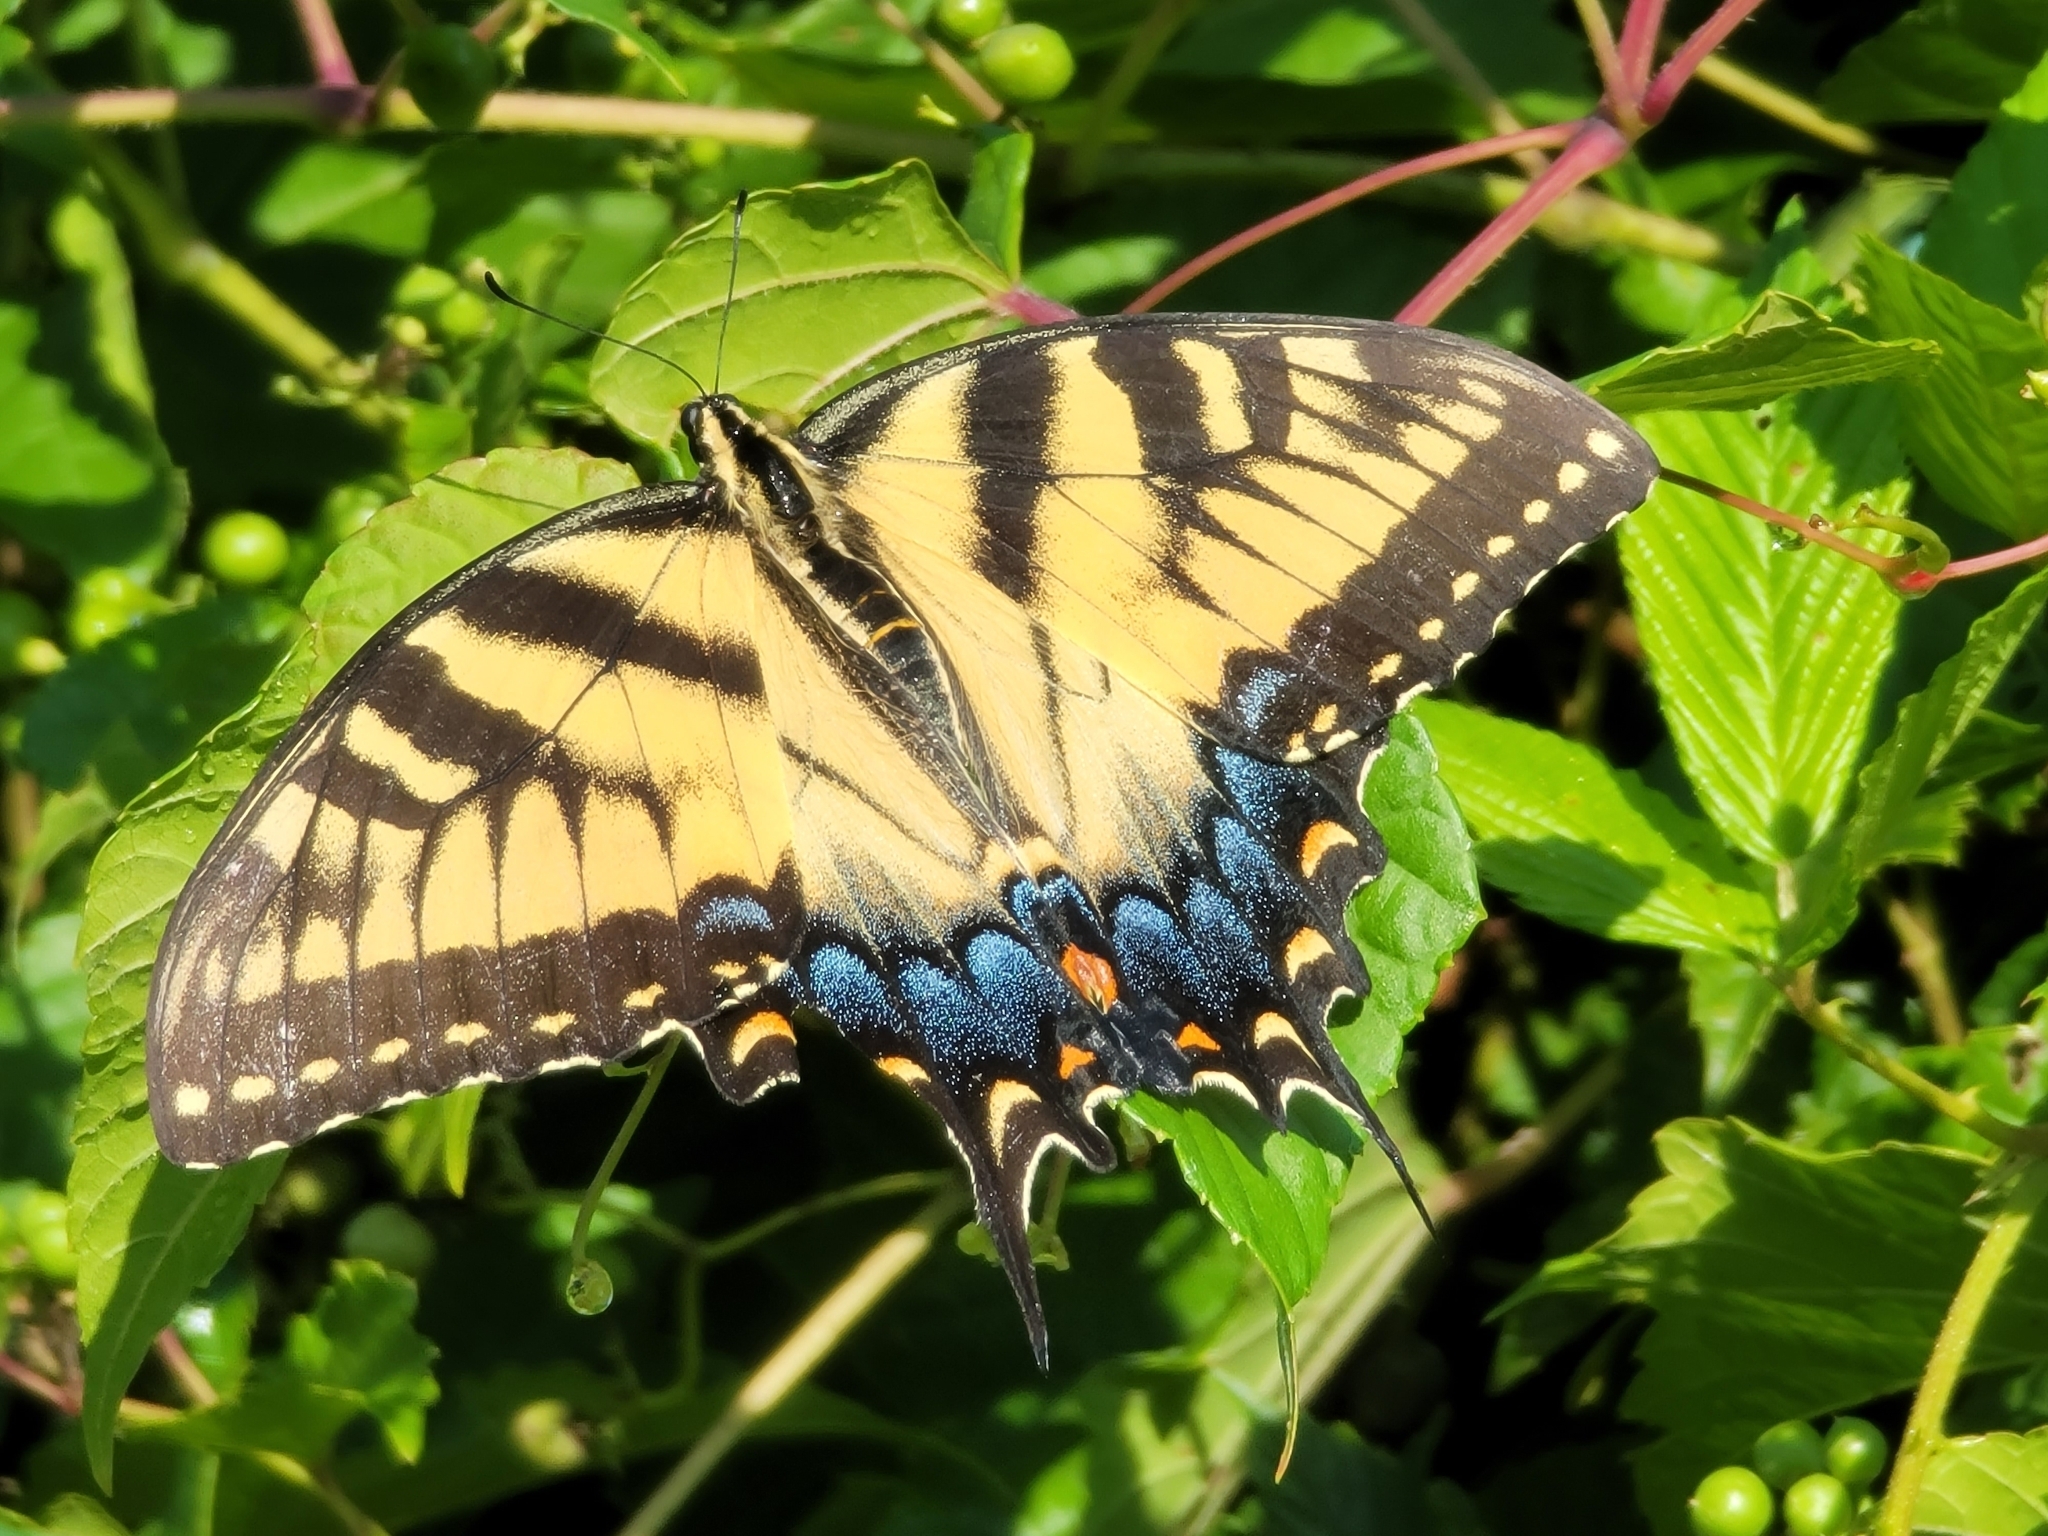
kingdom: Animalia
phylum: Arthropoda
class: Insecta
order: Lepidoptera
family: Papilionidae
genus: Papilio
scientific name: Papilio glaucus
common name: Tiger swallowtail
